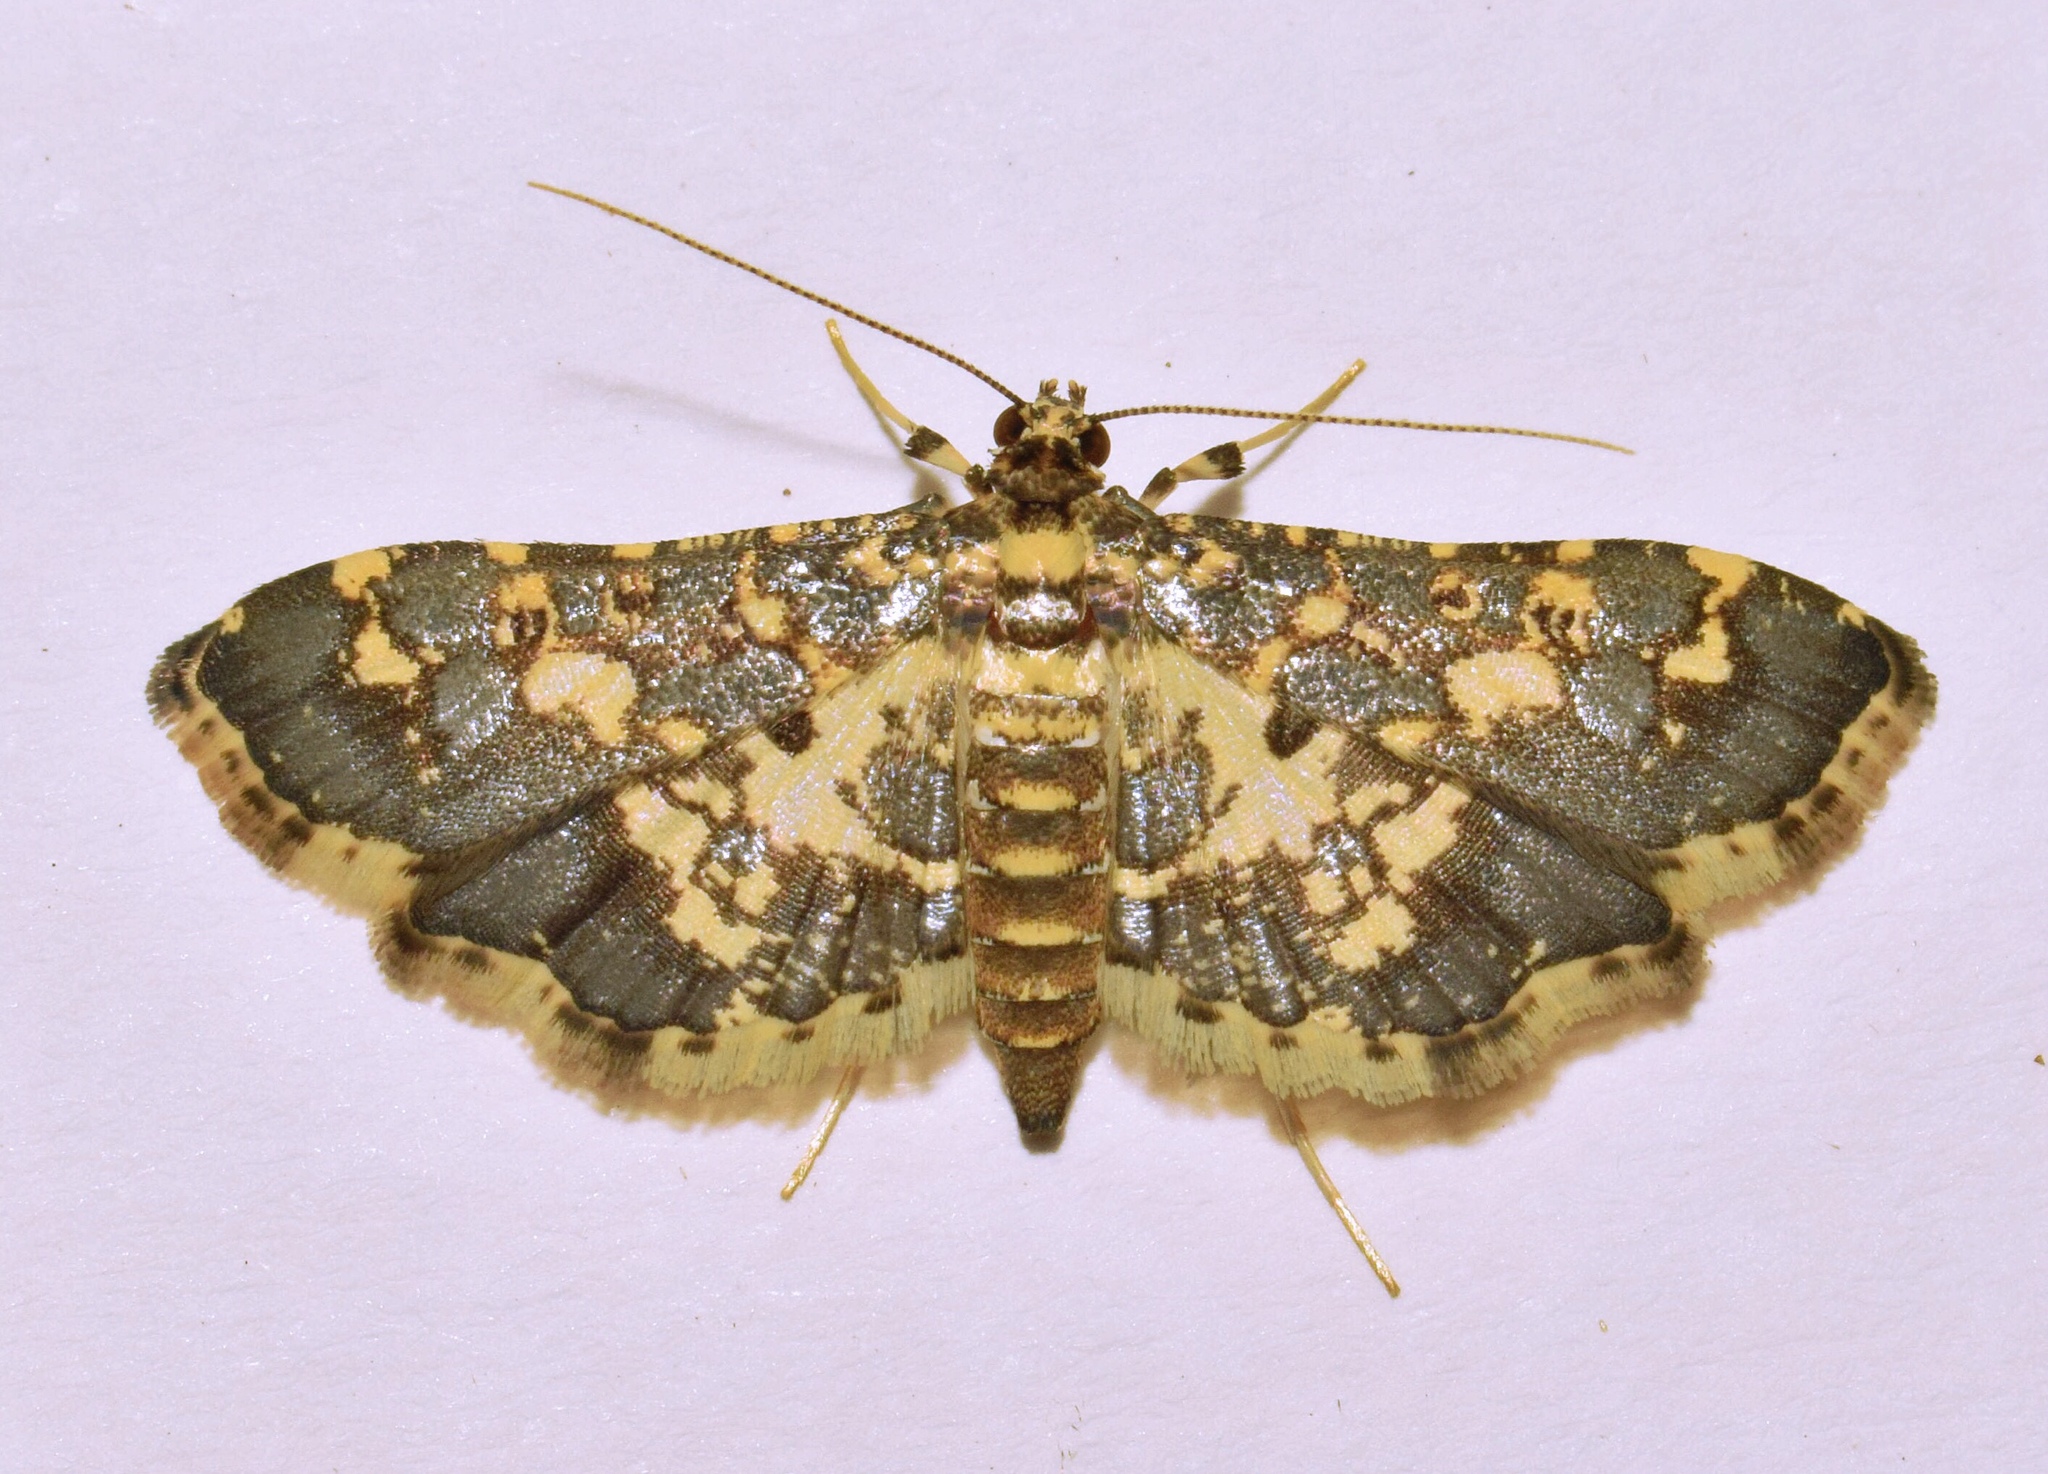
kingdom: Animalia
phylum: Arthropoda
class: Insecta
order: Lepidoptera
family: Crambidae
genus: Eurrhyparodes
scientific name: Eurrhyparodes bracteolalis
